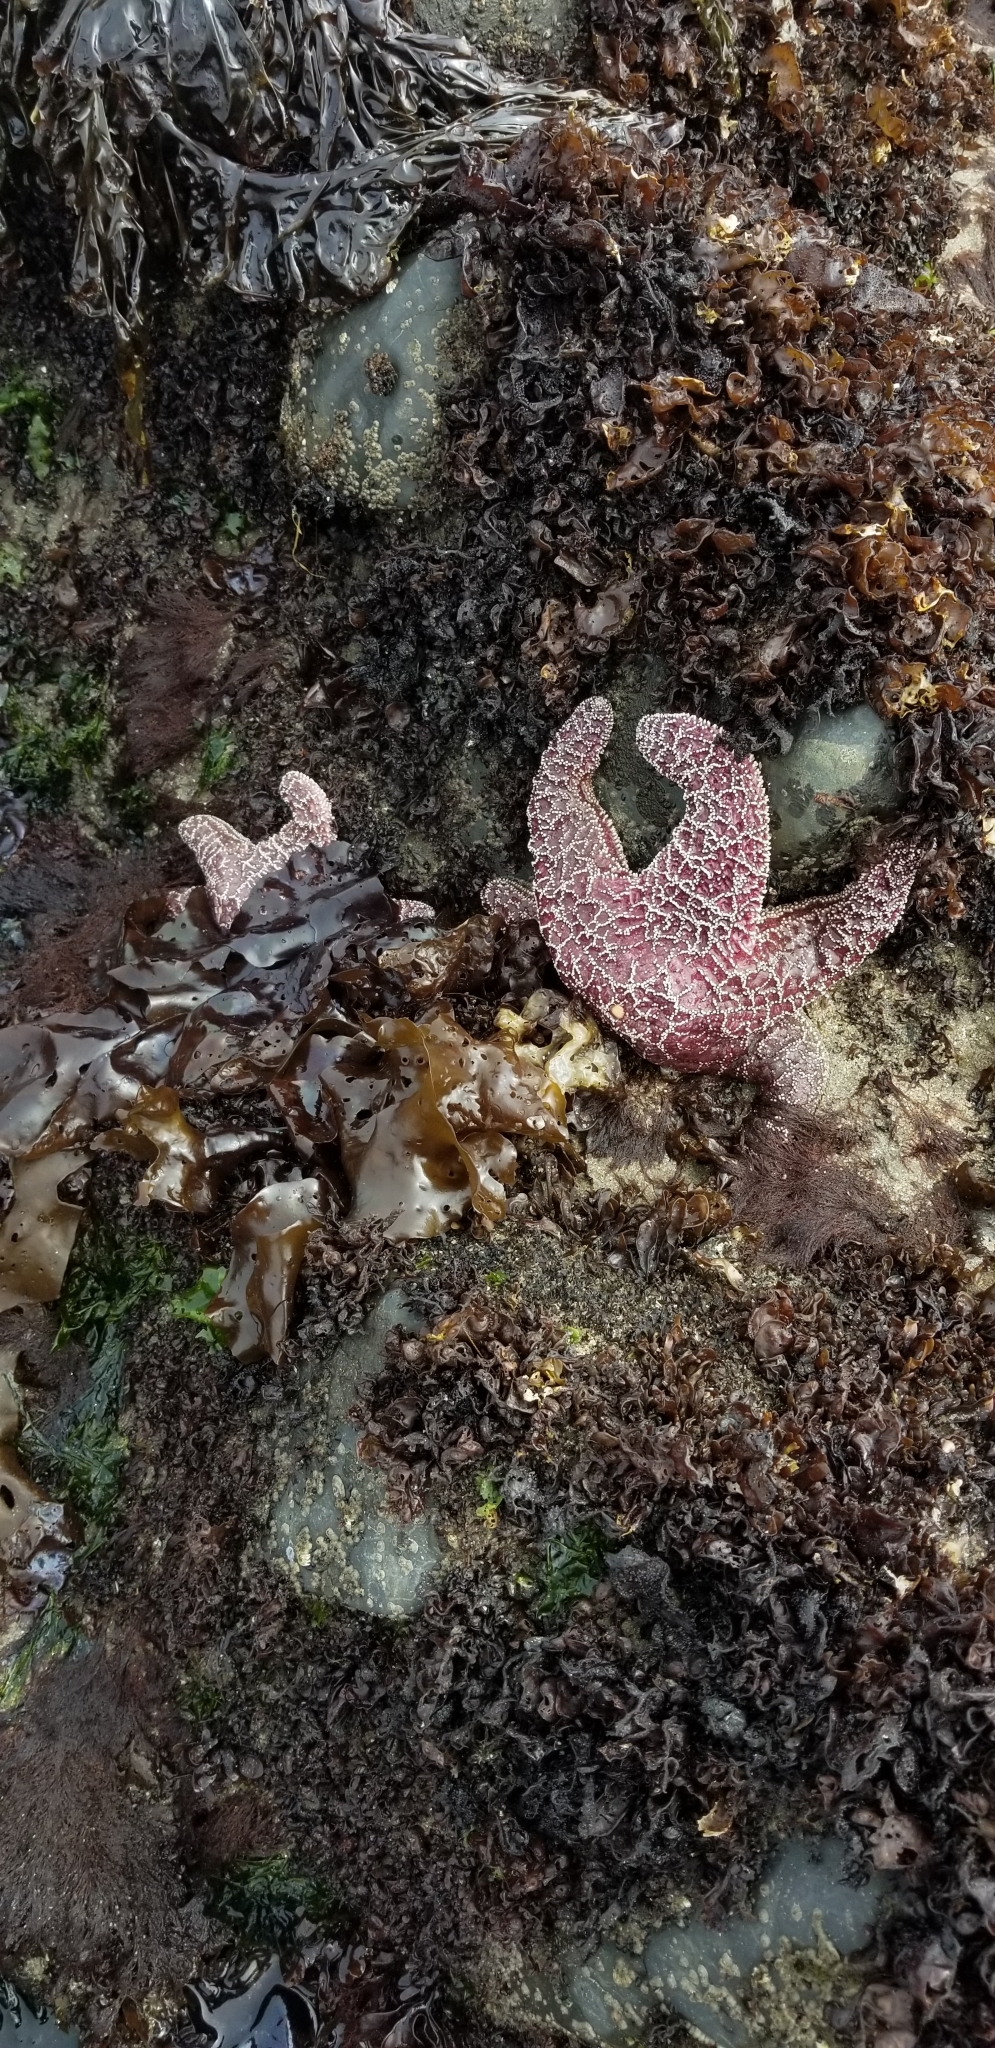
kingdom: Animalia
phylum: Echinodermata
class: Asteroidea
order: Forcipulatida
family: Asteriidae
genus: Pisaster
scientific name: Pisaster ochraceus
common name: Ochre stars
